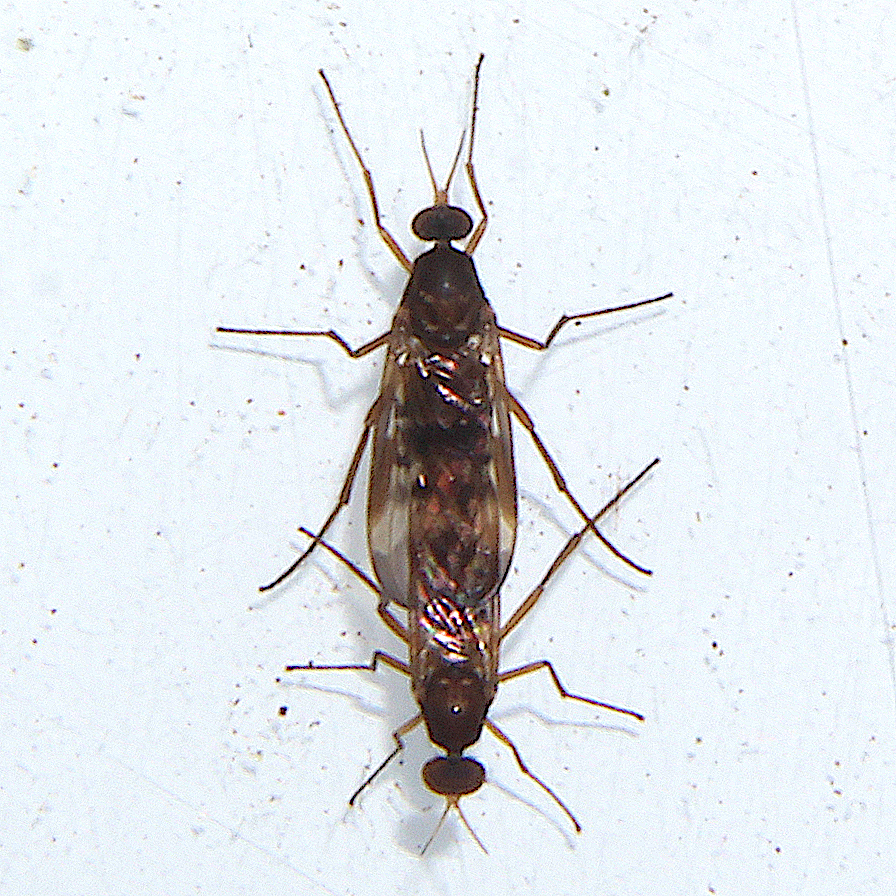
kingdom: Animalia
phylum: Arthropoda
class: Insecta
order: Diptera
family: Anisopodidae
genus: Sylvicola
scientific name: Sylvicola neozelandicus
